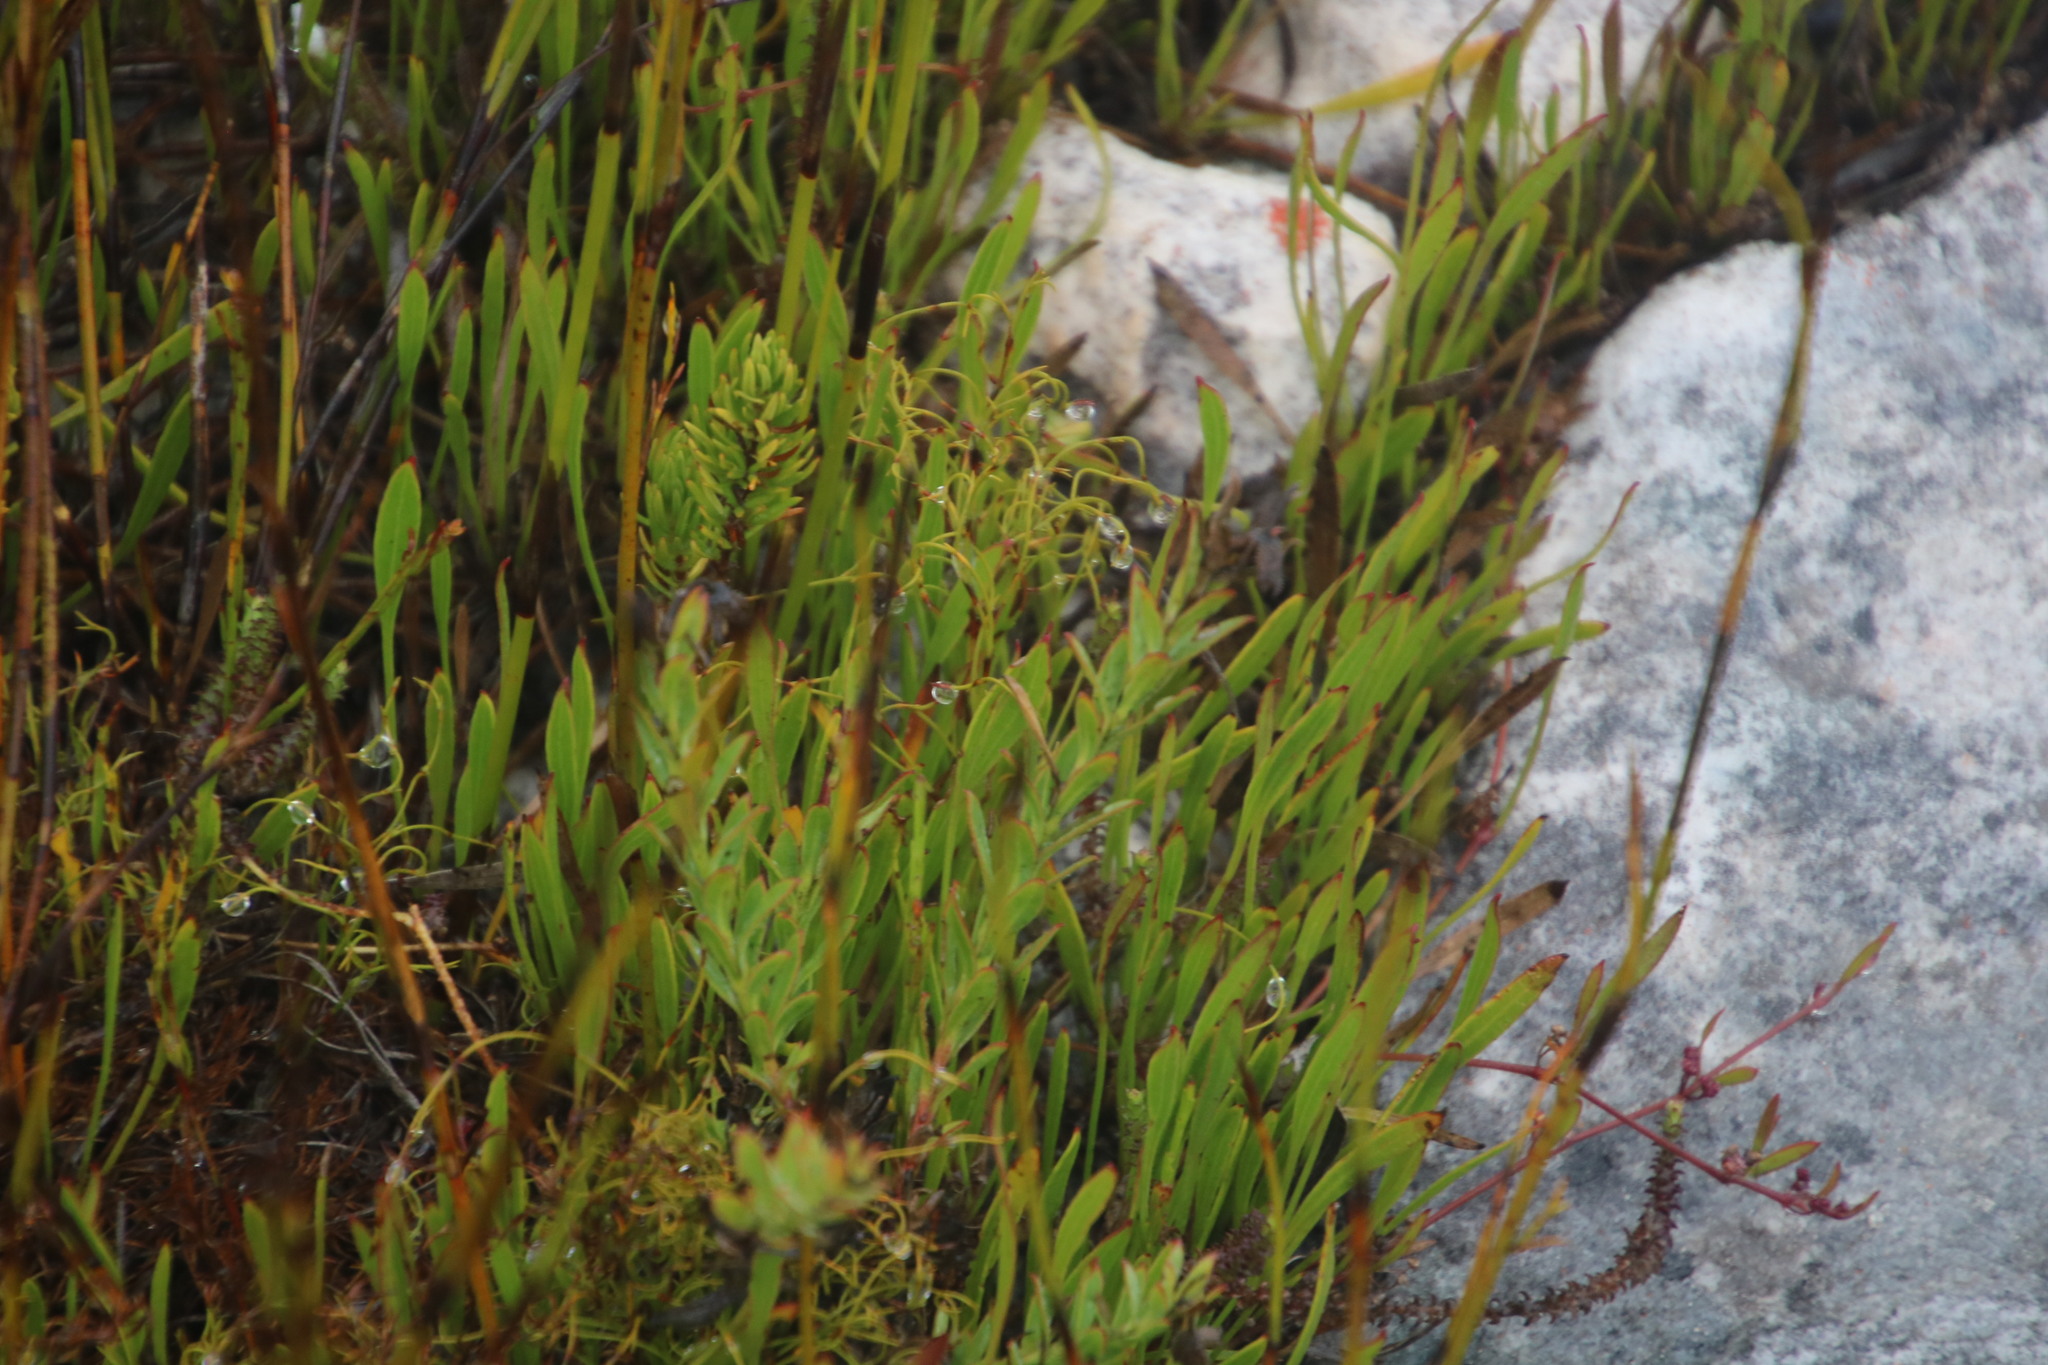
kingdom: Plantae
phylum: Tracheophyta
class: Magnoliopsida
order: Apiales
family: Apiaceae
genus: Centella
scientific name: Centella glabrata
